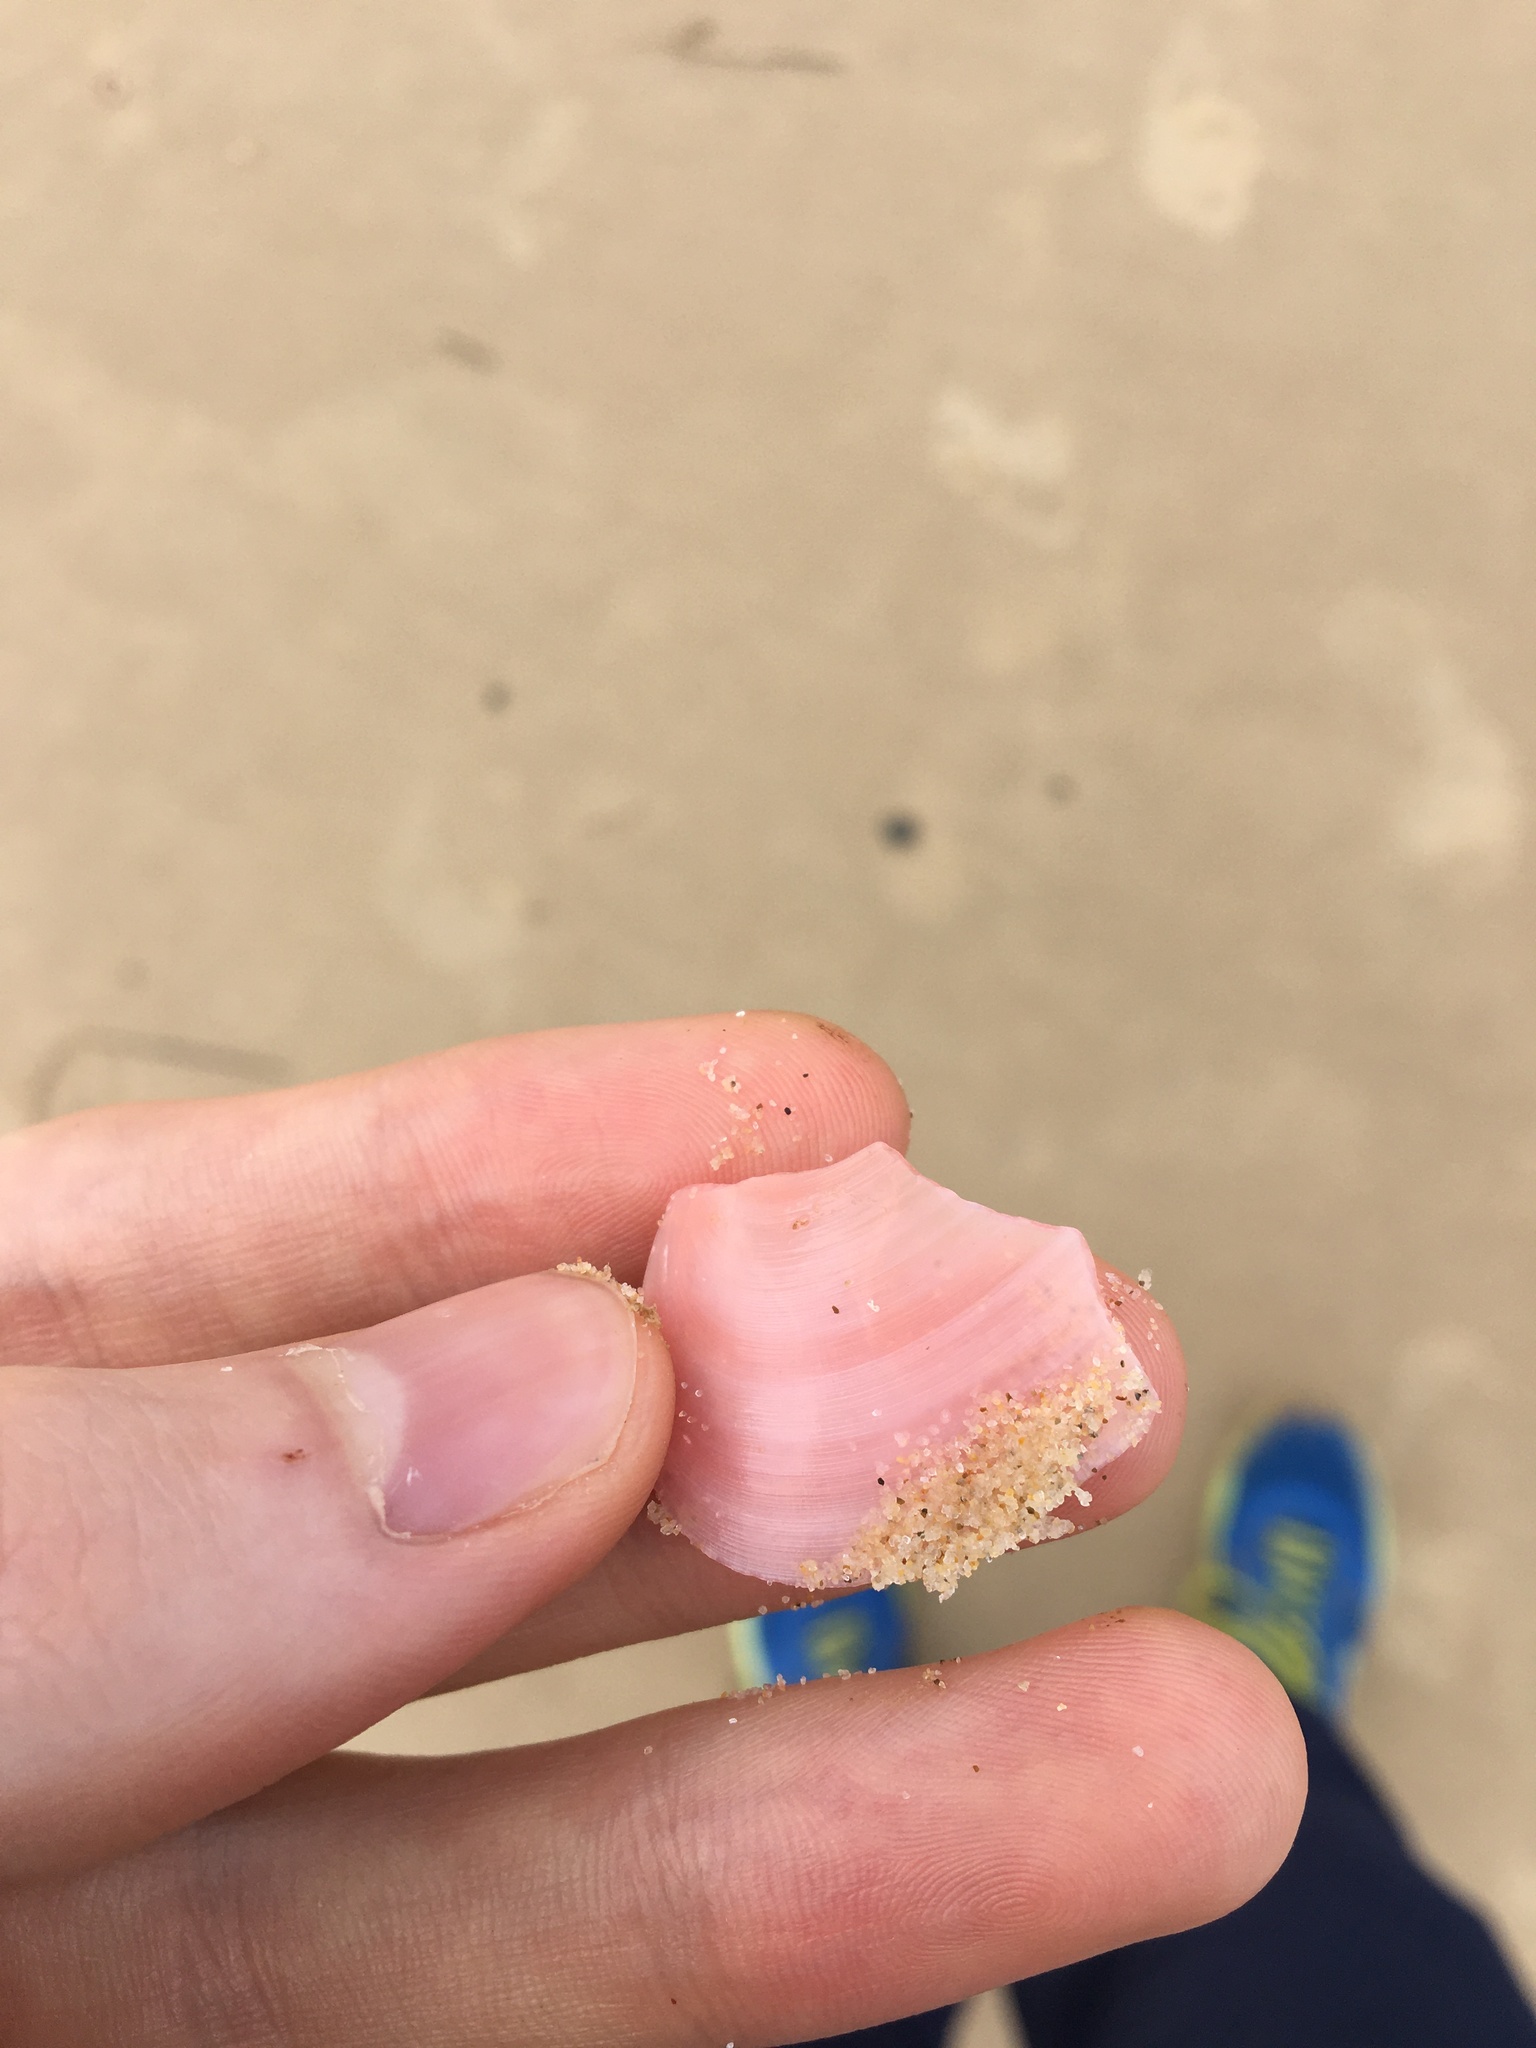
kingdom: Animalia
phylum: Mollusca
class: Bivalvia
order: Cardiida
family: Tellinidae
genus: Tellinota
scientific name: Tellinota albinella
